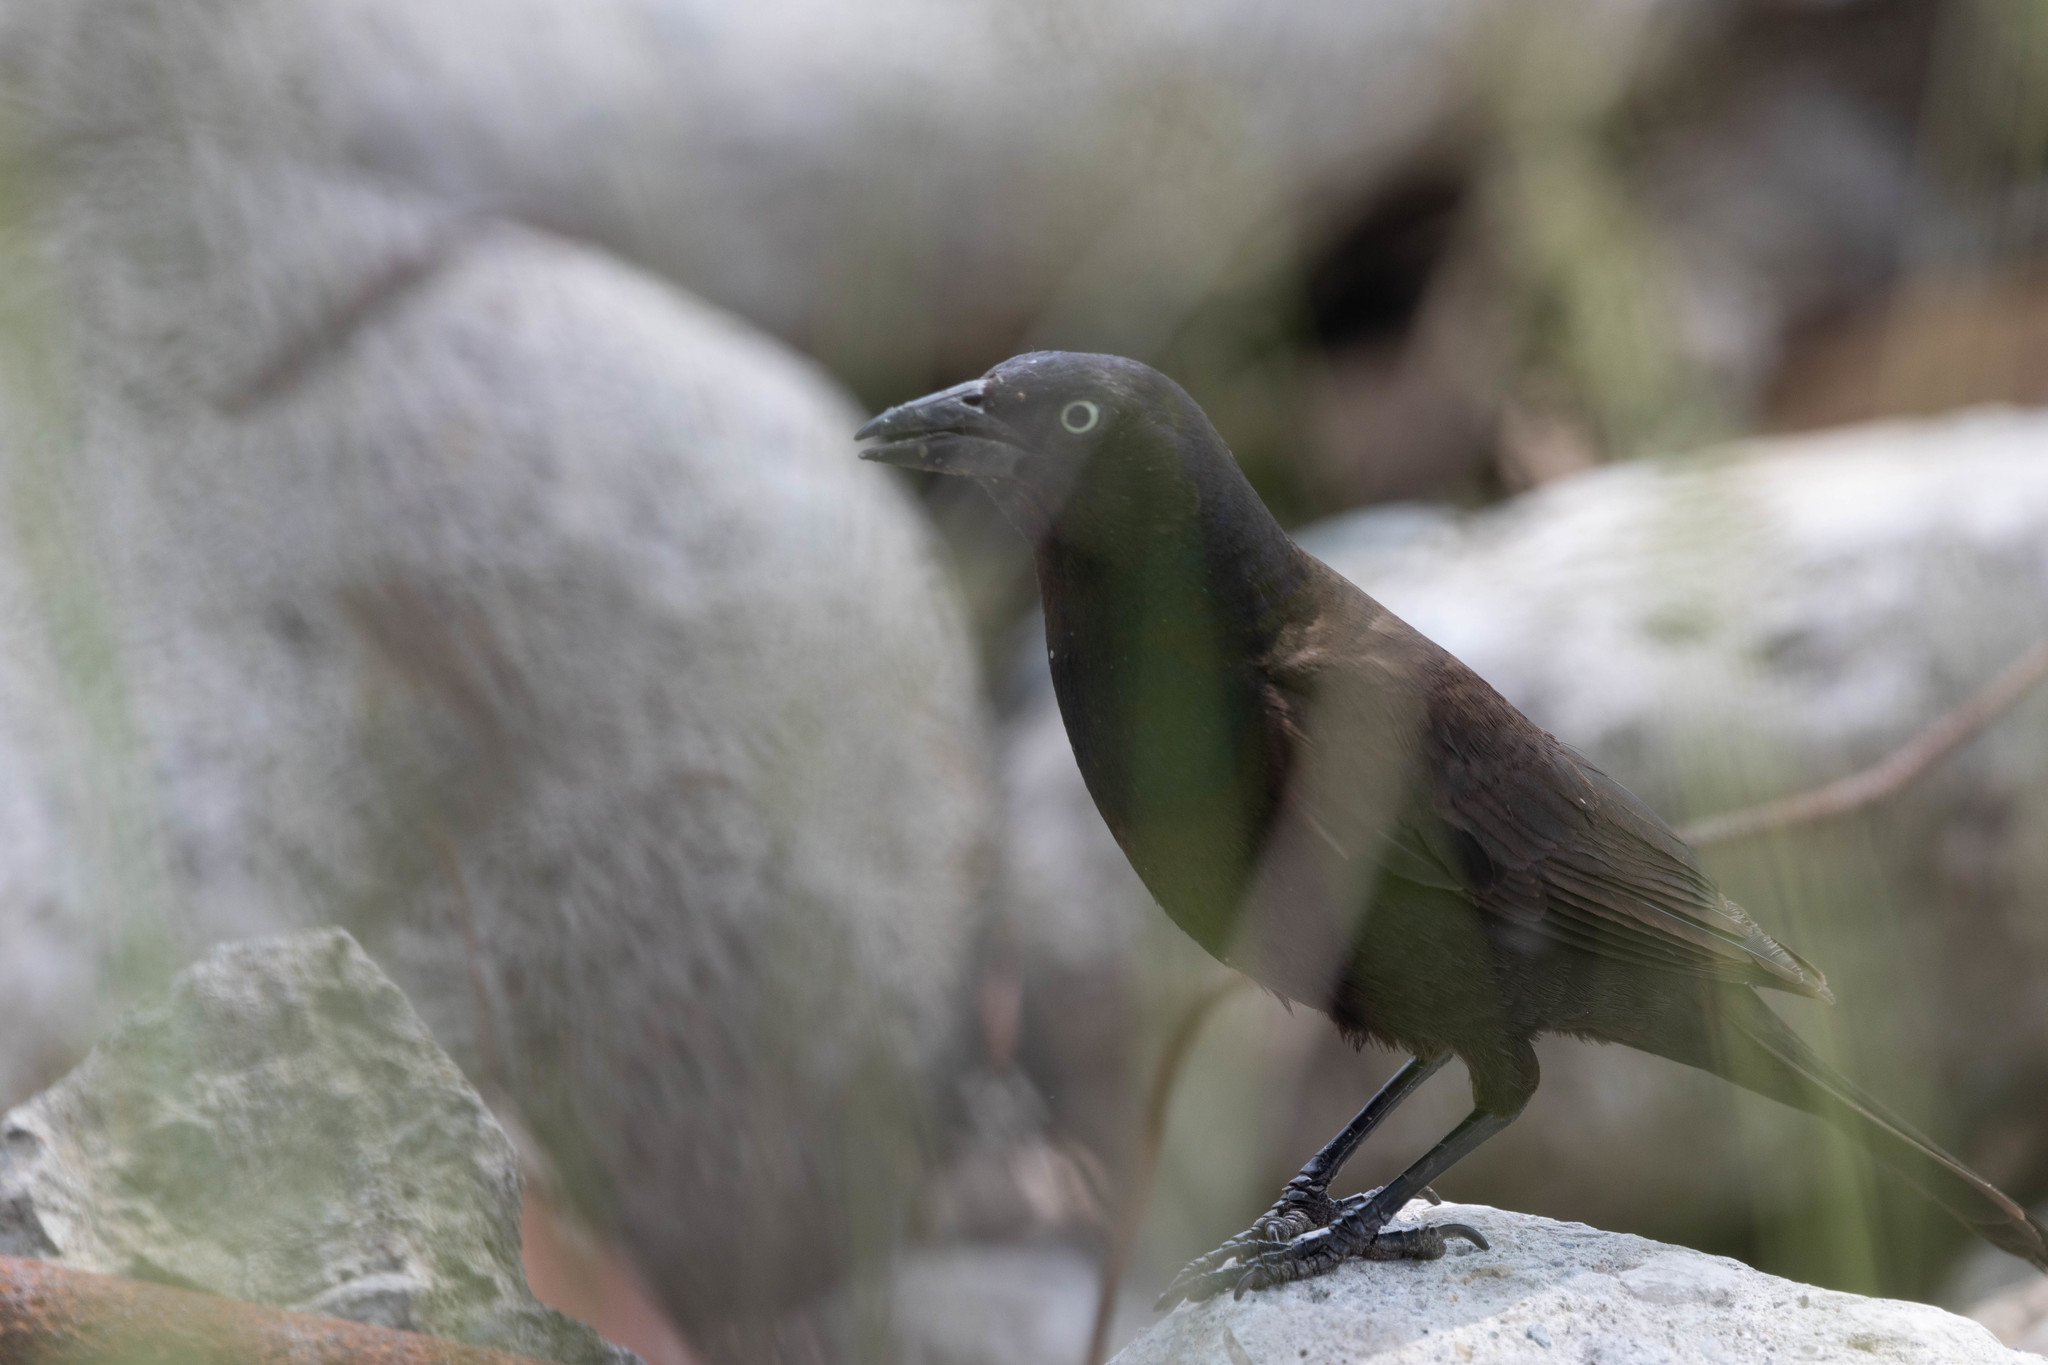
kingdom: Animalia
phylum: Chordata
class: Aves
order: Passeriformes
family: Icteridae
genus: Quiscalus
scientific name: Quiscalus quiscula
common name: Common grackle
